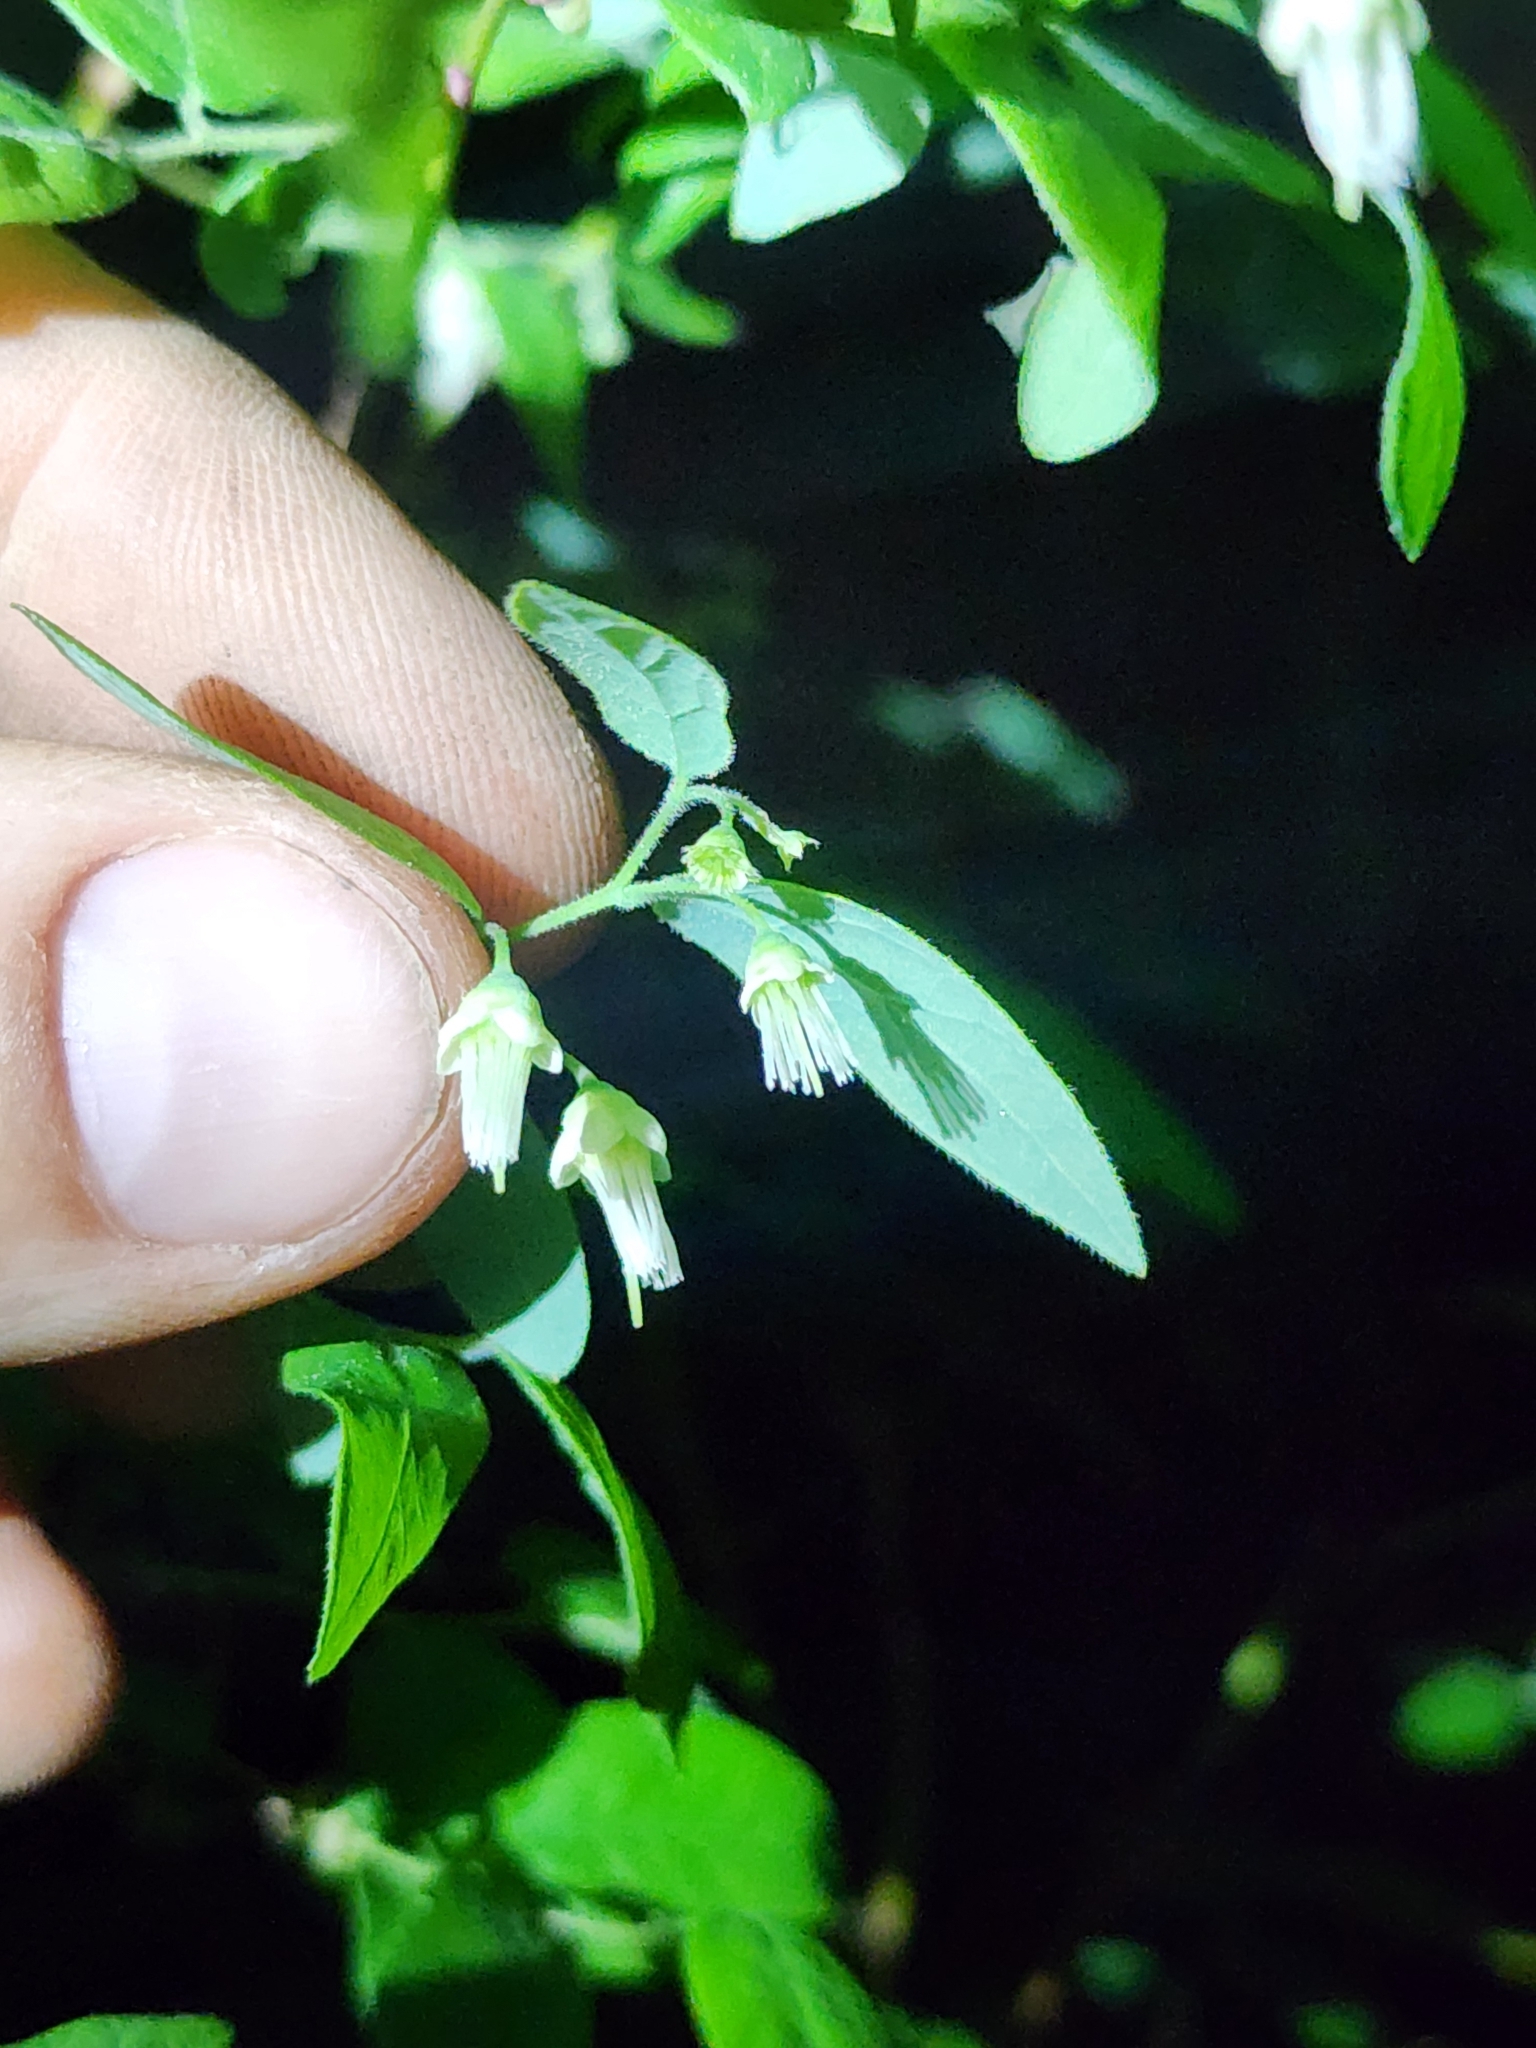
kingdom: Plantae
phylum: Tracheophyta
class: Magnoliopsida
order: Ericales
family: Ericaceae
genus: Vaccinium
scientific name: Vaccinium stamineum
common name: Deerberry
